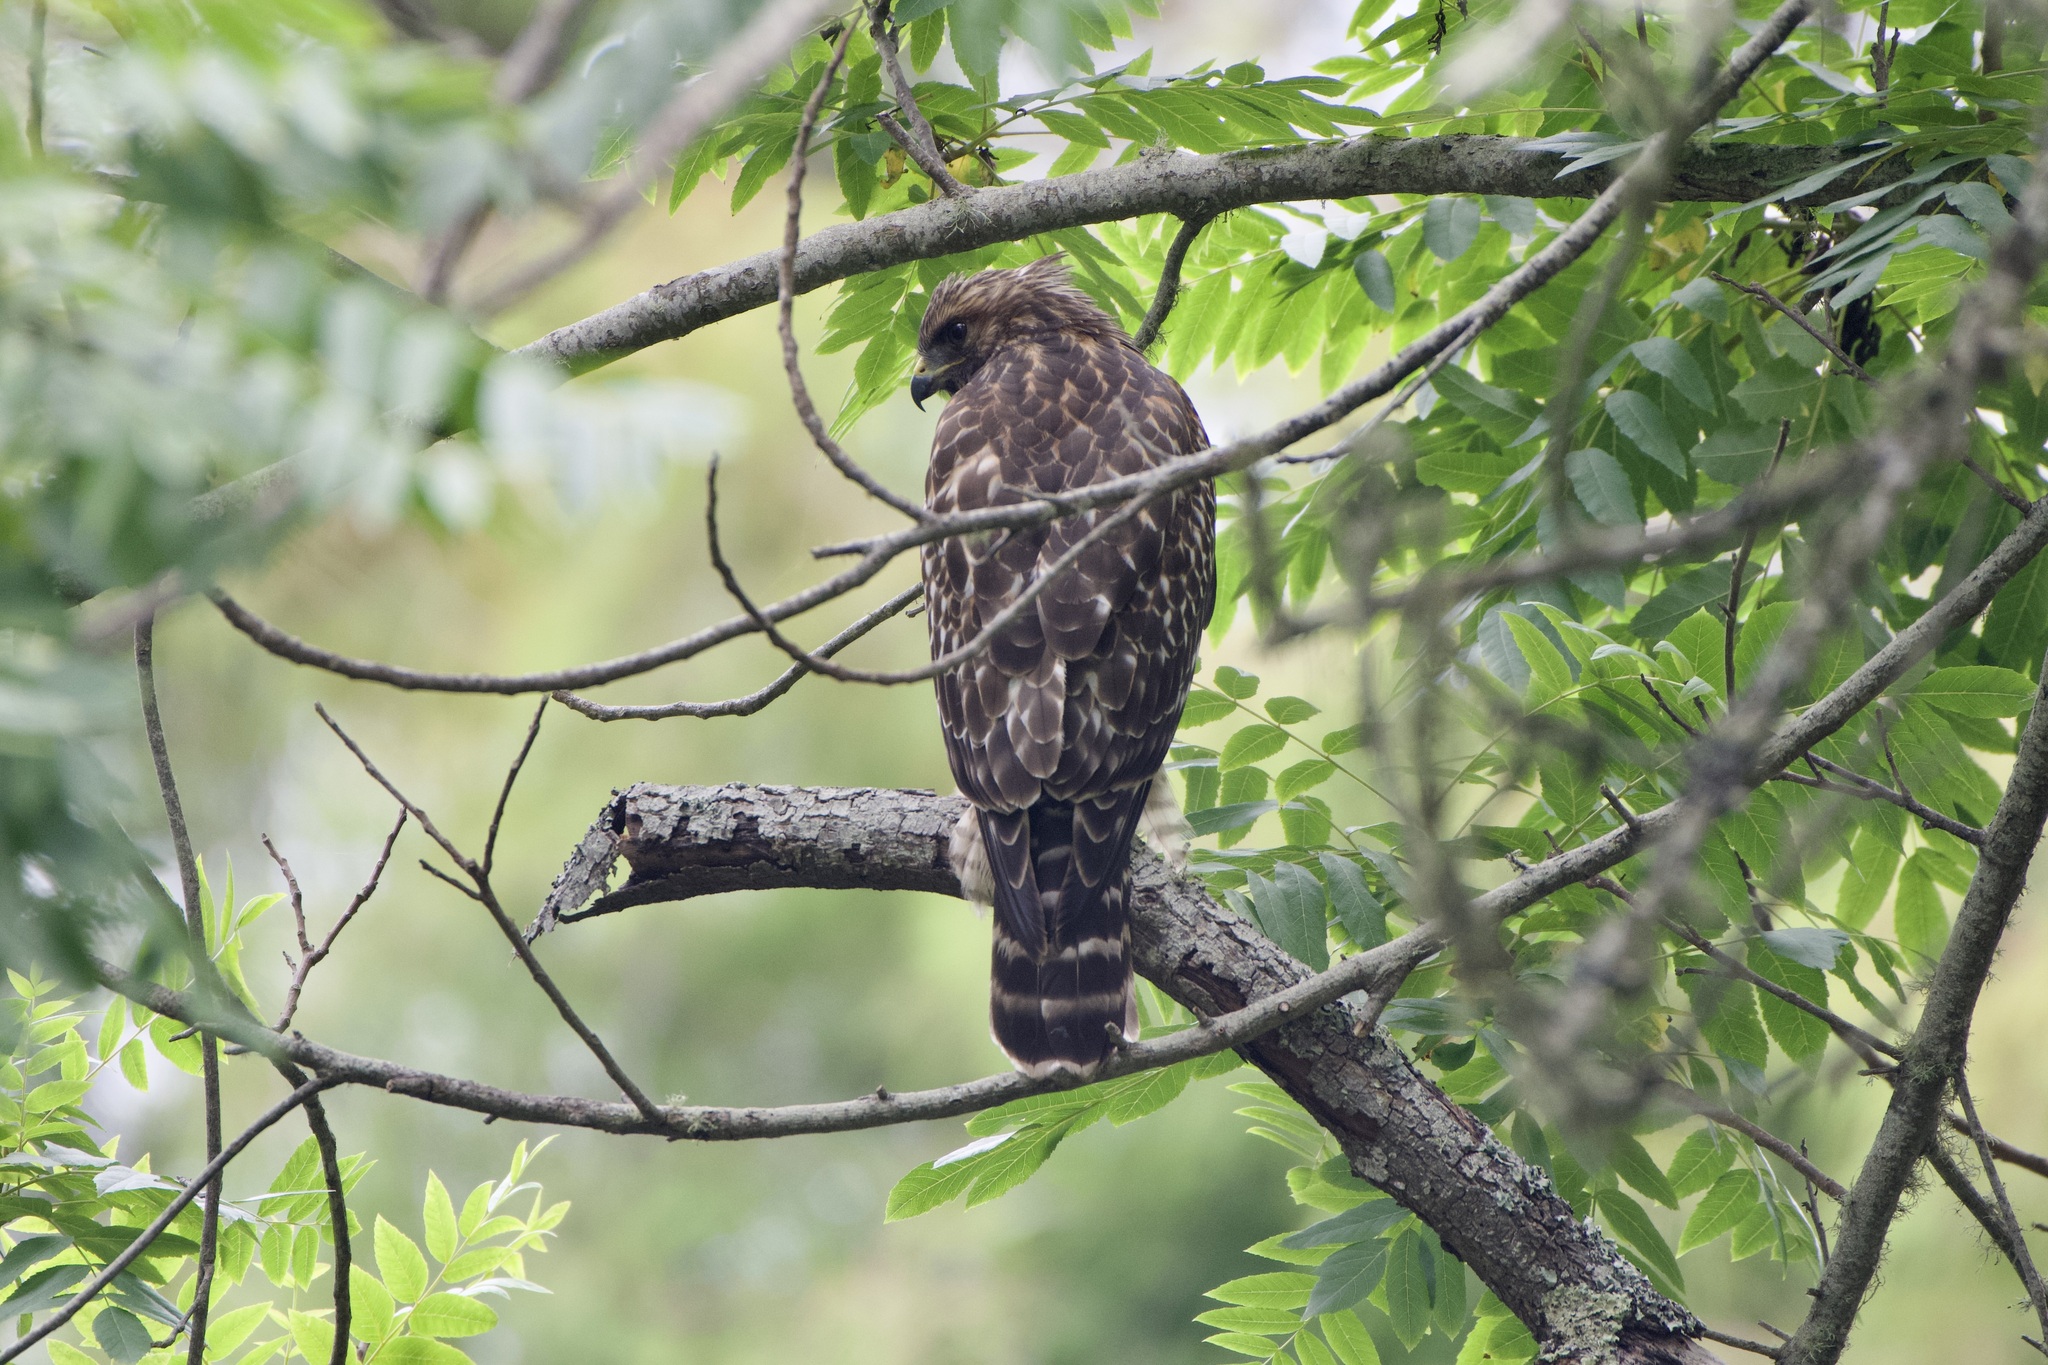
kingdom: Animalia
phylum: Chordata
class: Aves
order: Accipitriformes
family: Accipitridae
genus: Buteo
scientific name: Buteo lineatus
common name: Red-shouldered hawk
